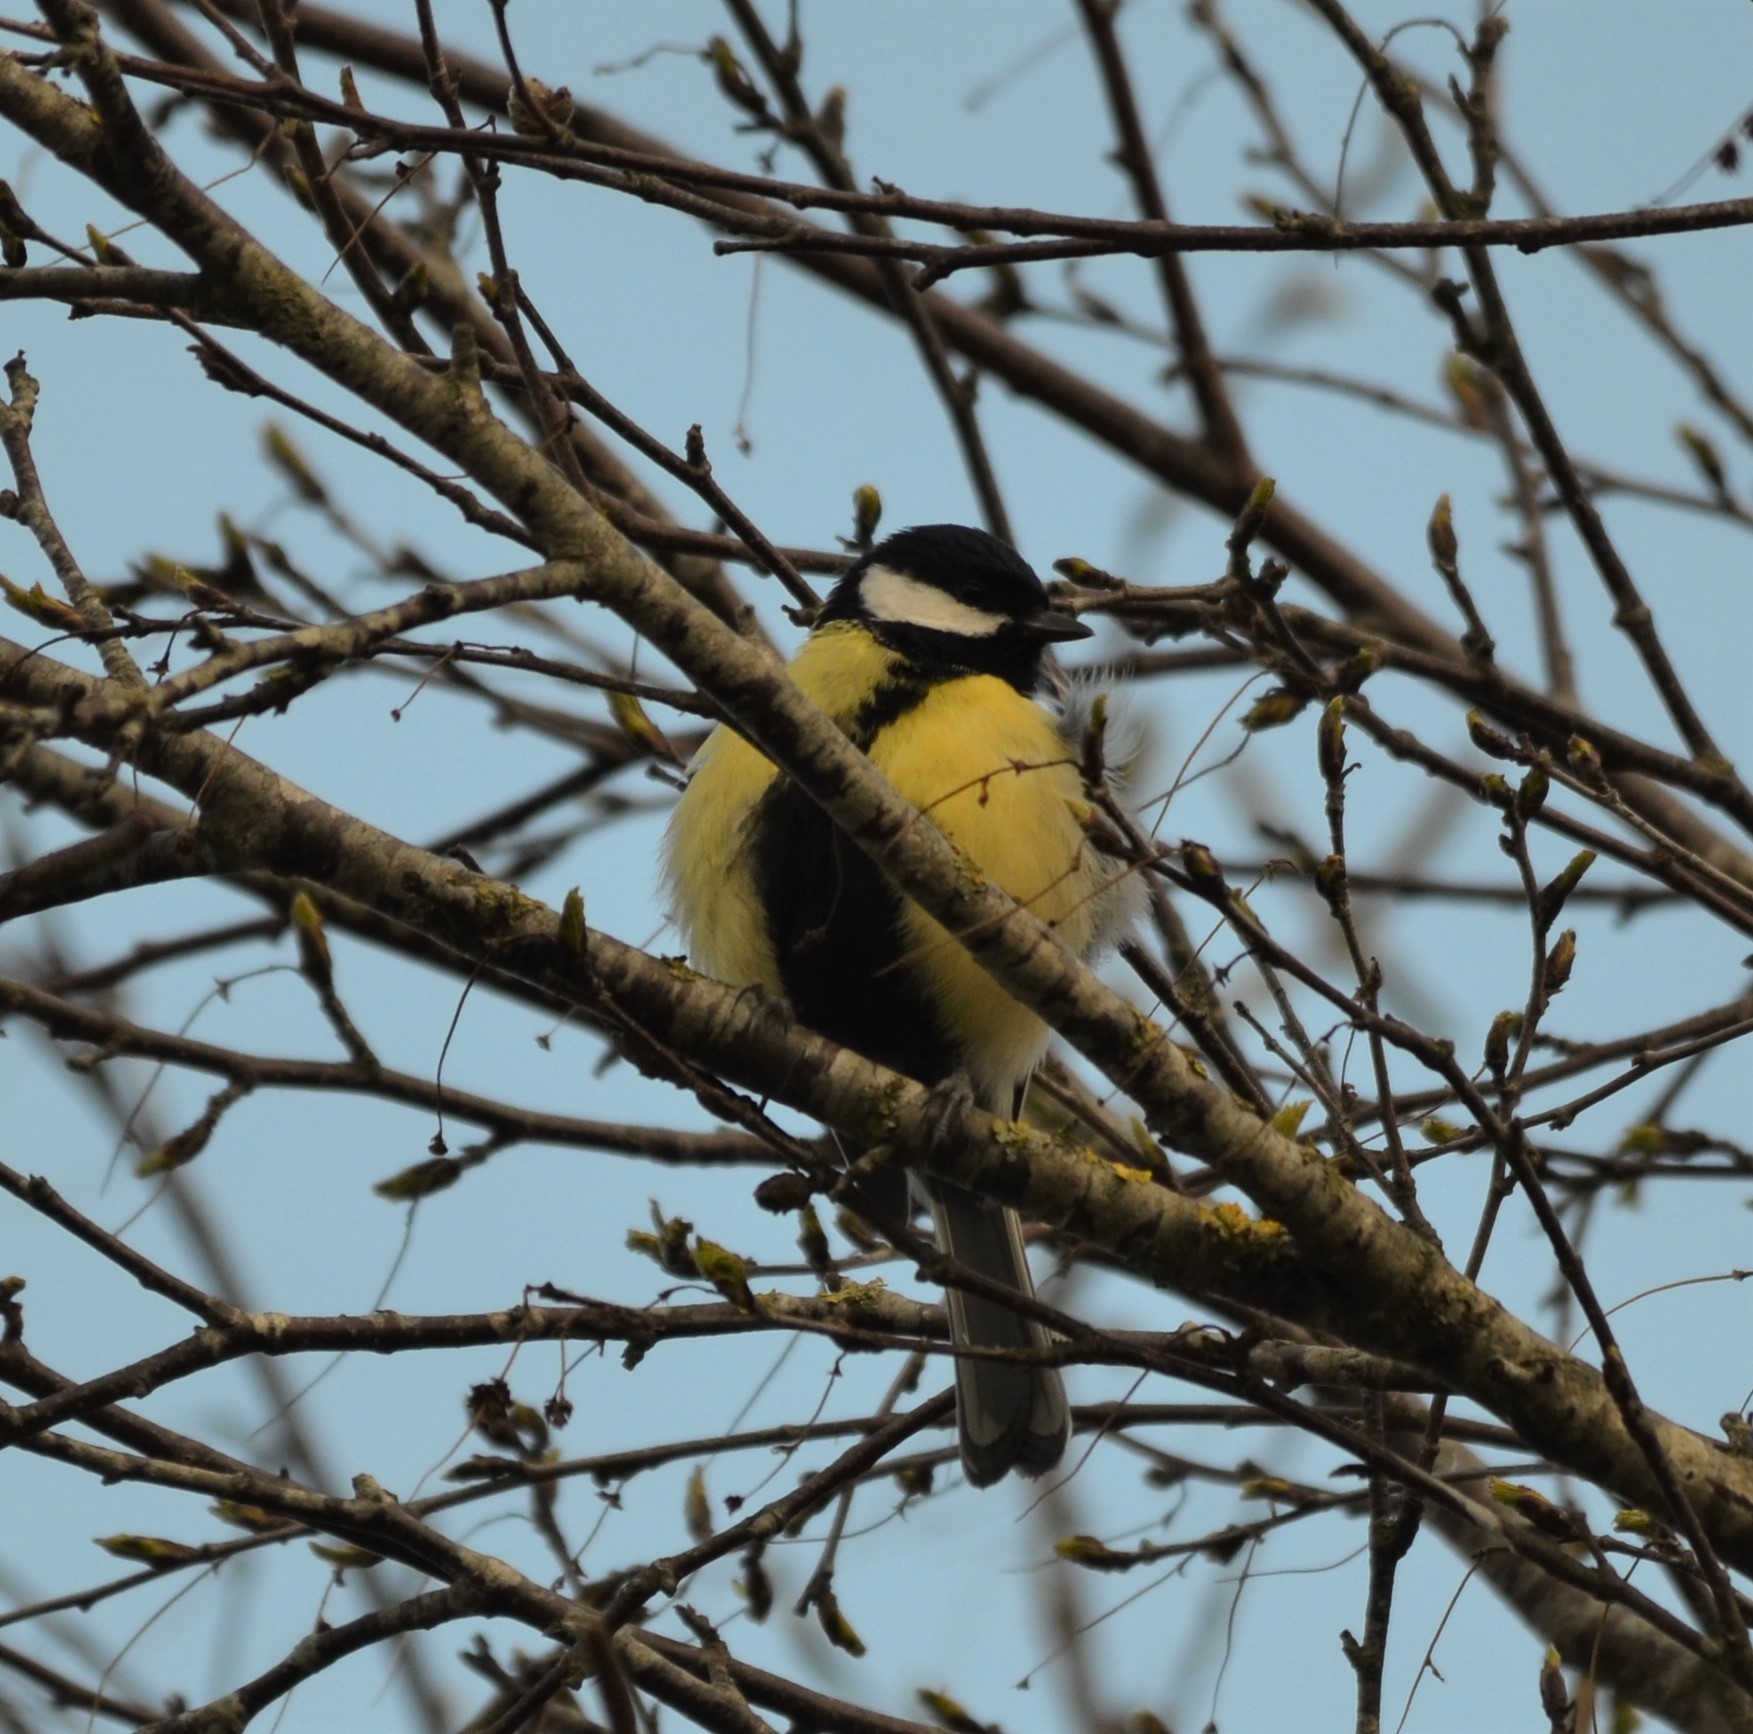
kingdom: Animalia
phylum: Chordata
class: Aves
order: Passeriformes
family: Paridae
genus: Parus
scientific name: Parus major
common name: Great tit
